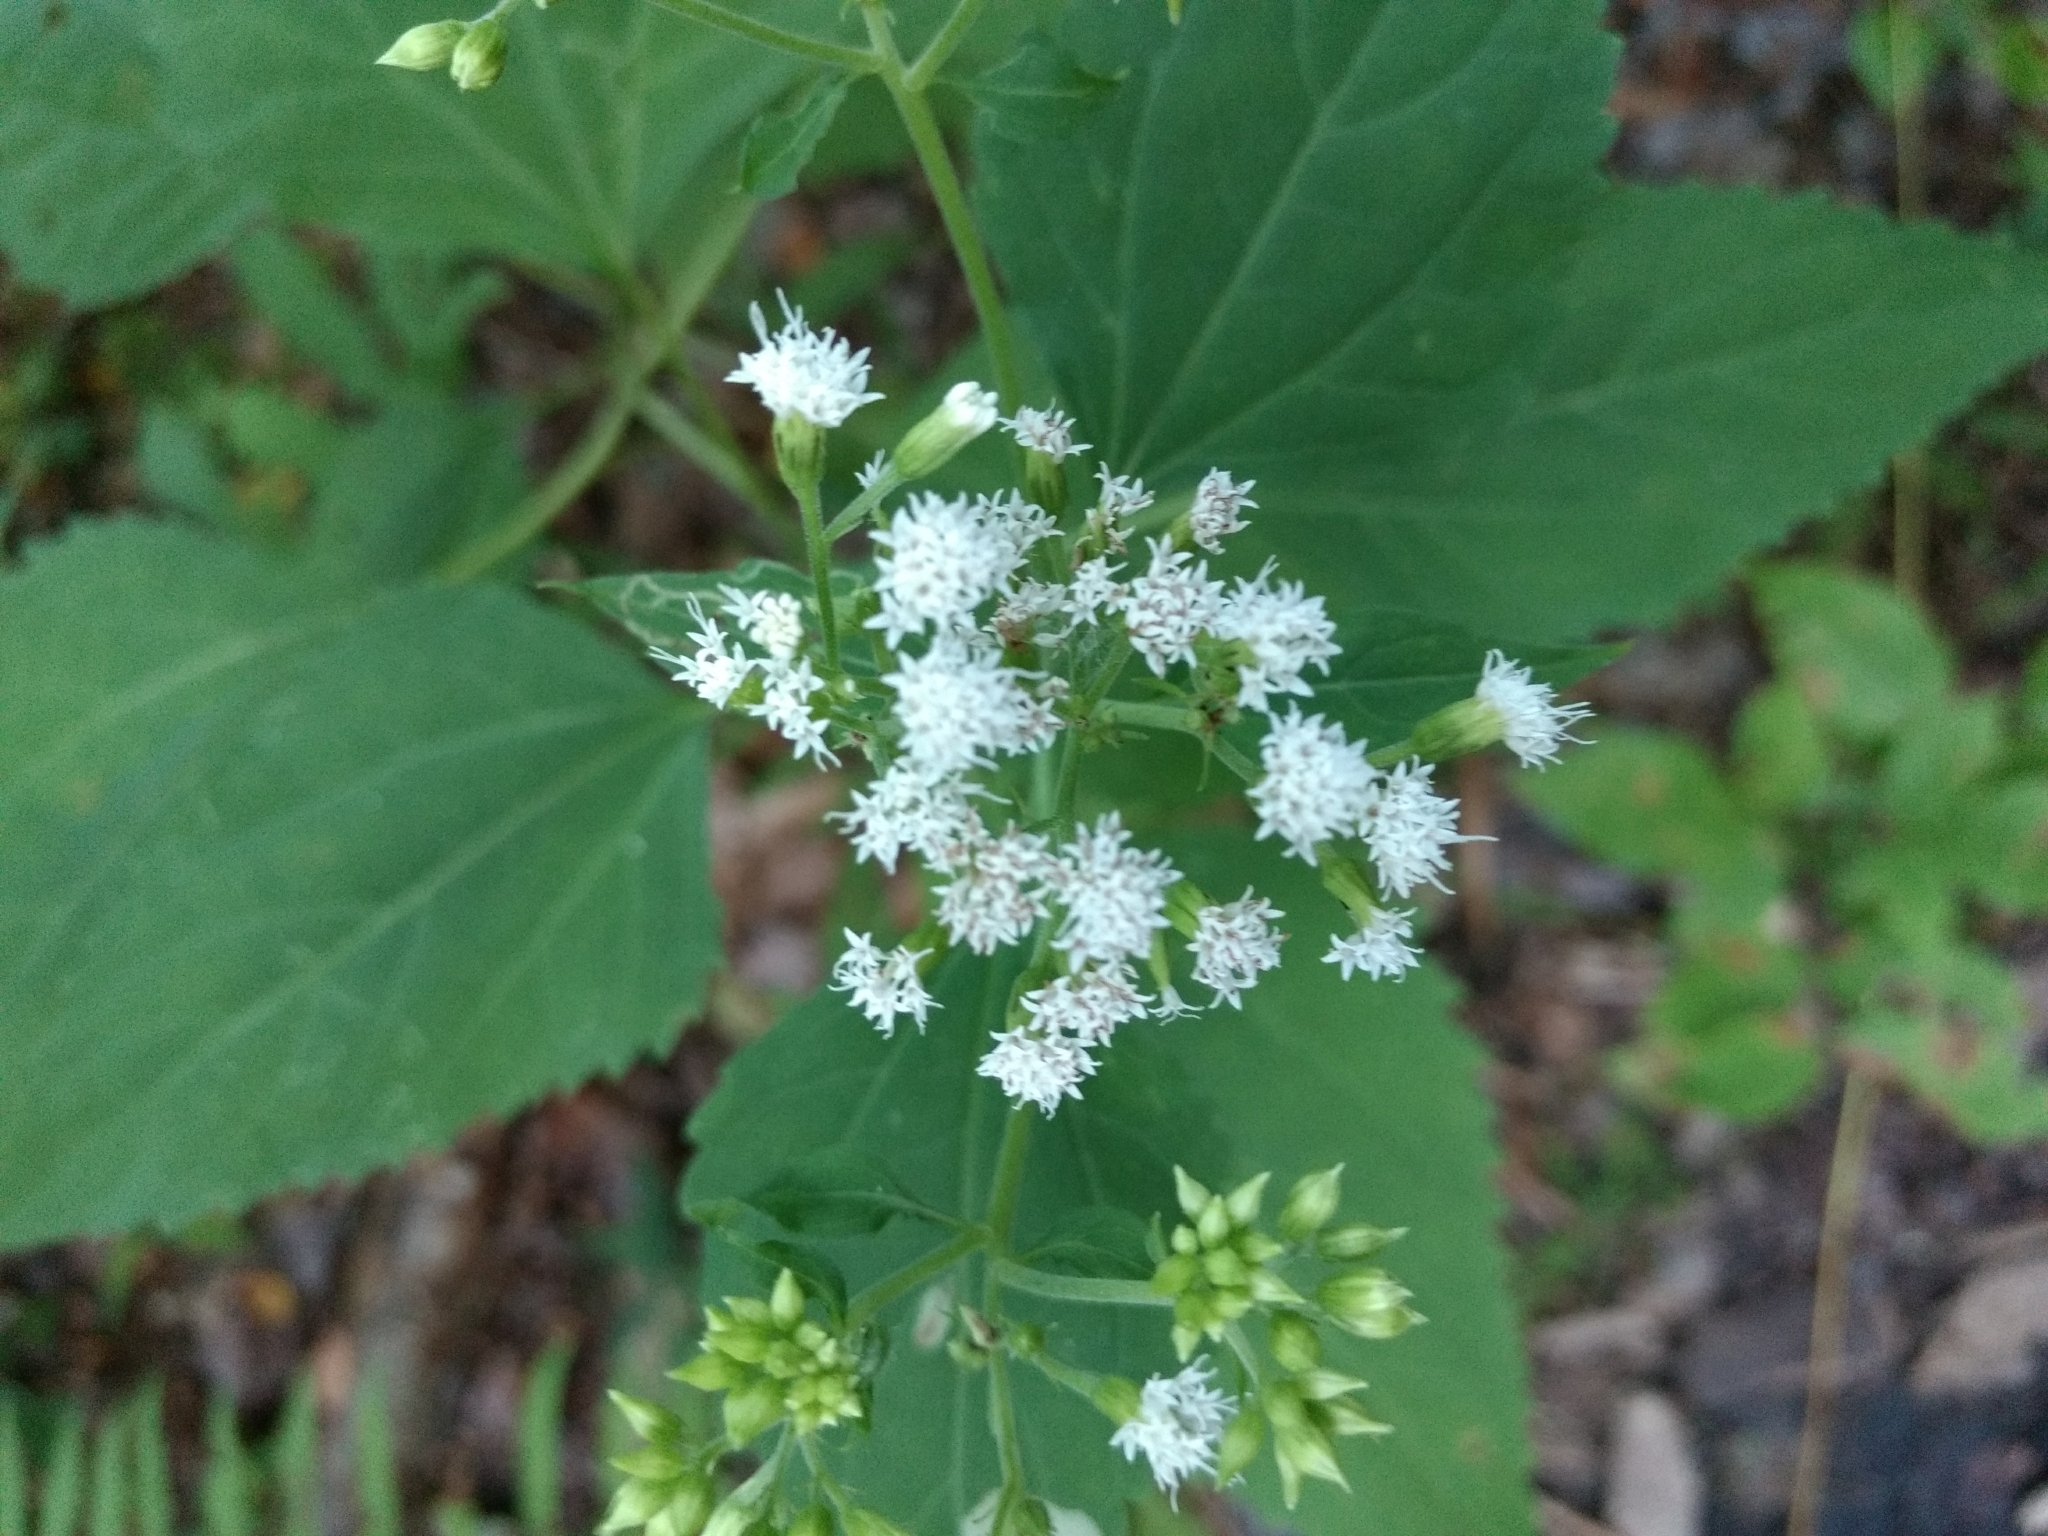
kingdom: Plantae
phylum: Tracheophyta
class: Magnoliopsida
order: Asterales
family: Asteraceae
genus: Ageratina
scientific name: Ageratina altissima
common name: White snakeroot
